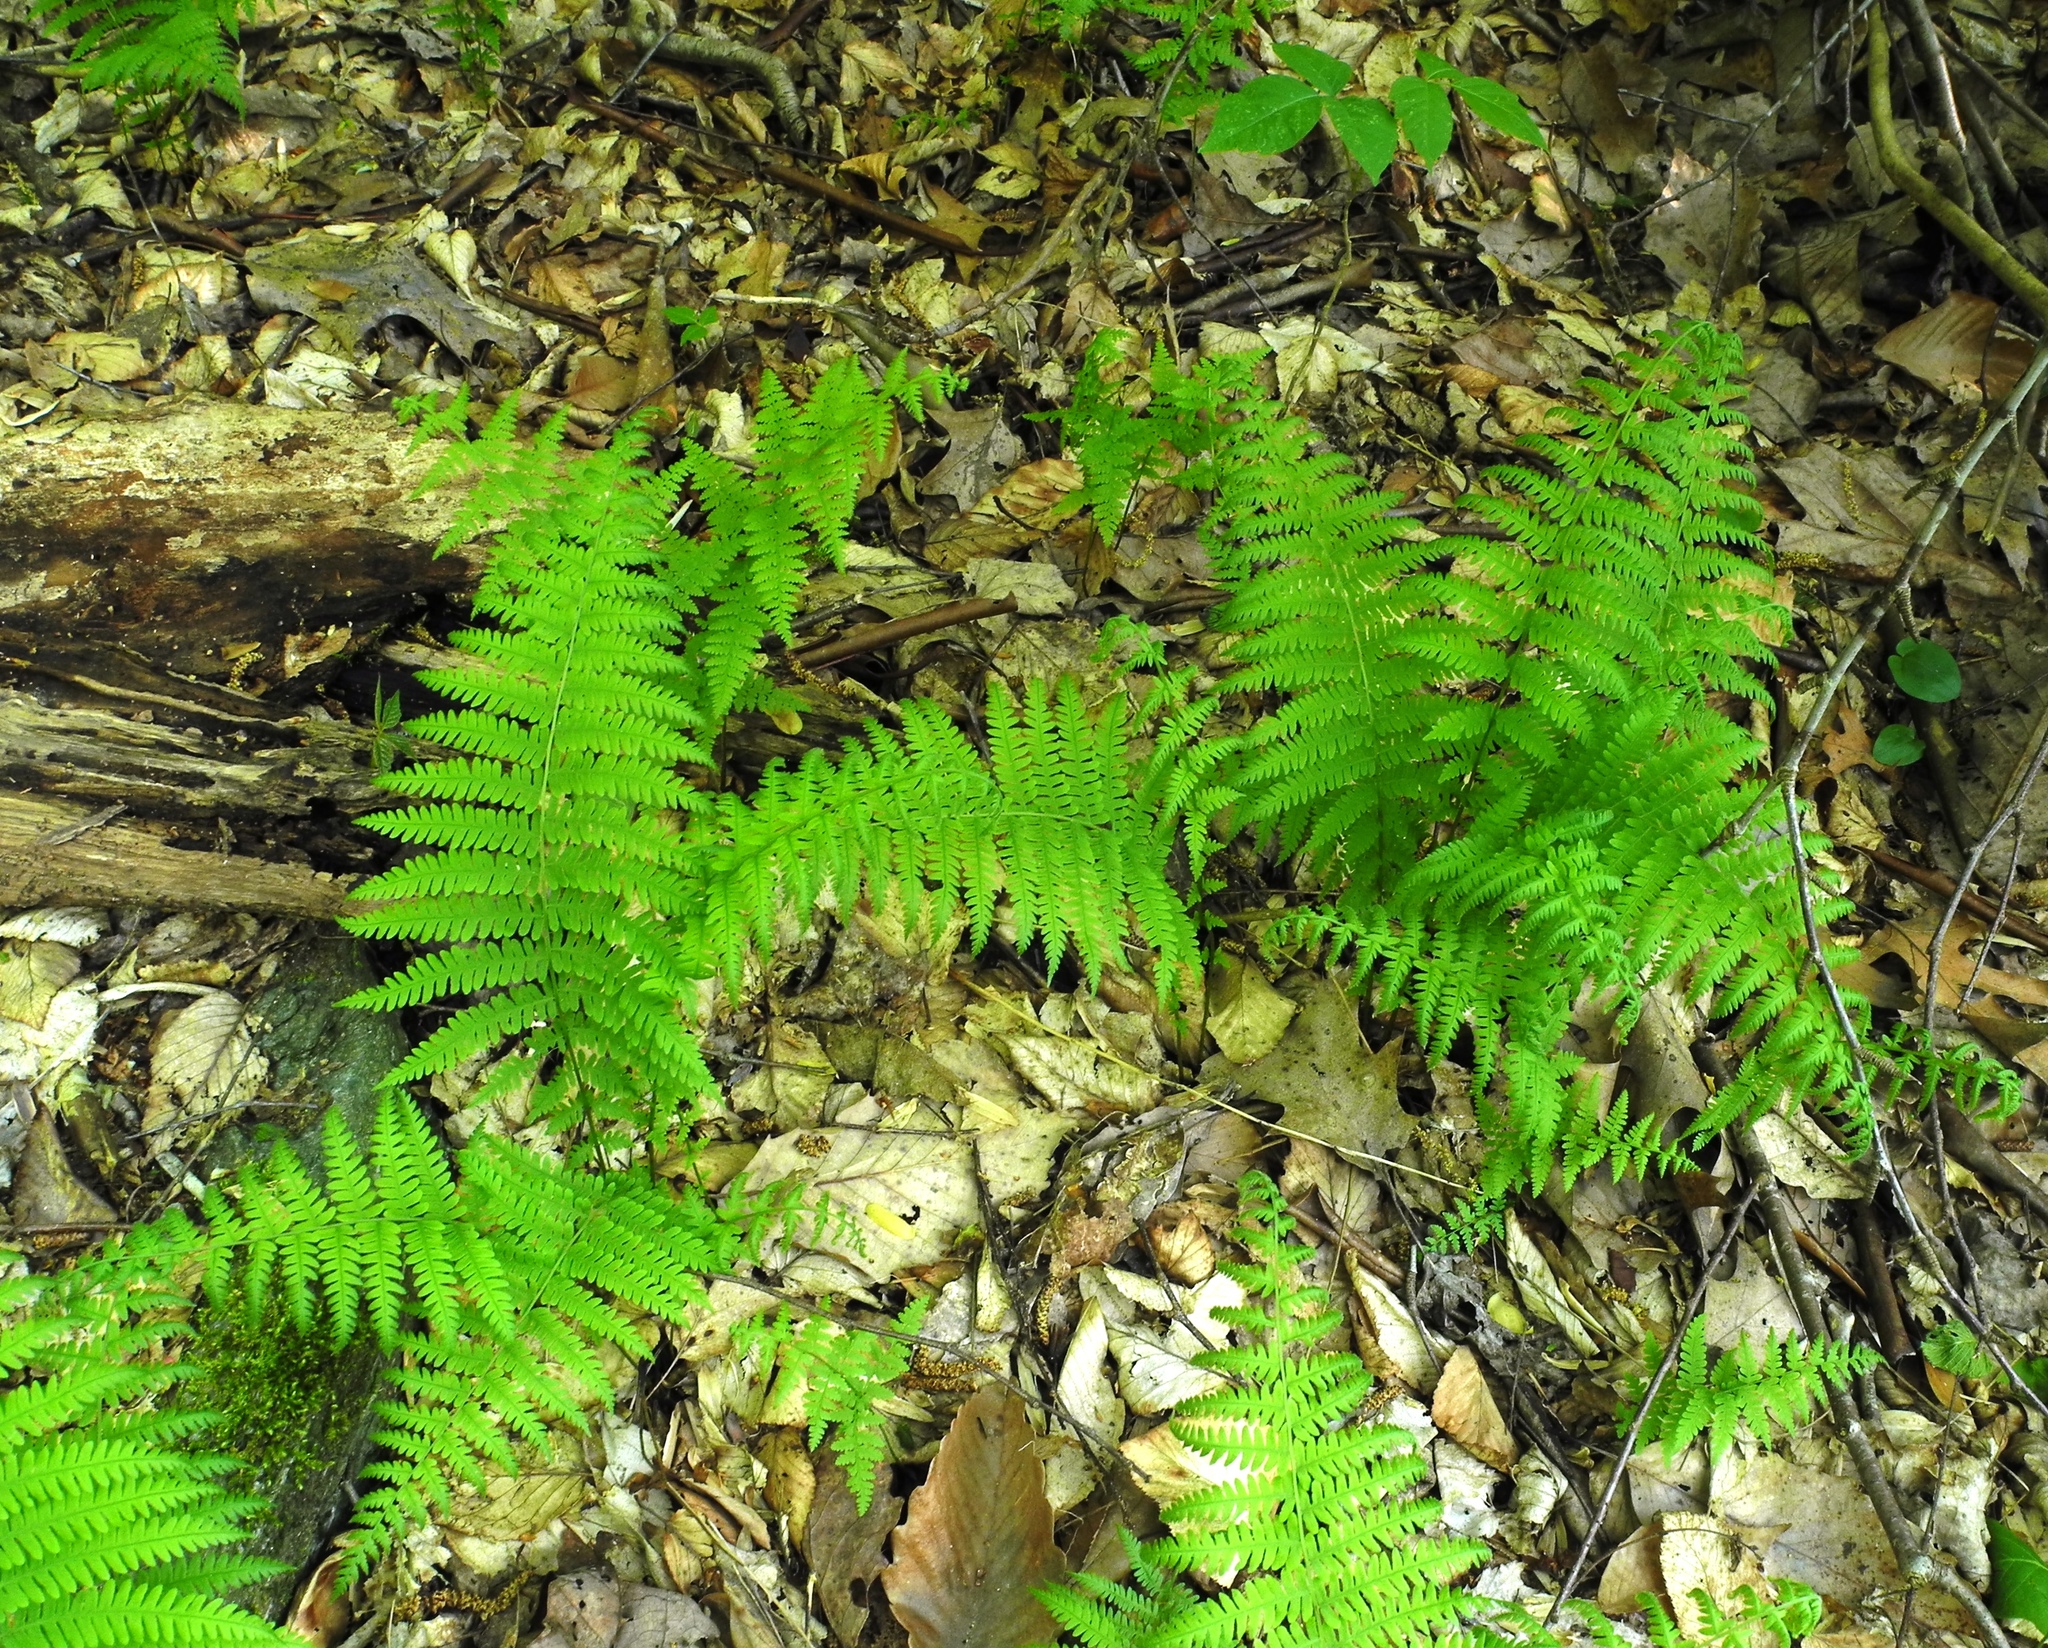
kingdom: Plantae
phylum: Tracheophyta
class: Polypodiopsida
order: Polypodiales
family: Thelypteridaceae
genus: Amauropelta
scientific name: Amauropelta noveboracensis
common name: New york fern
